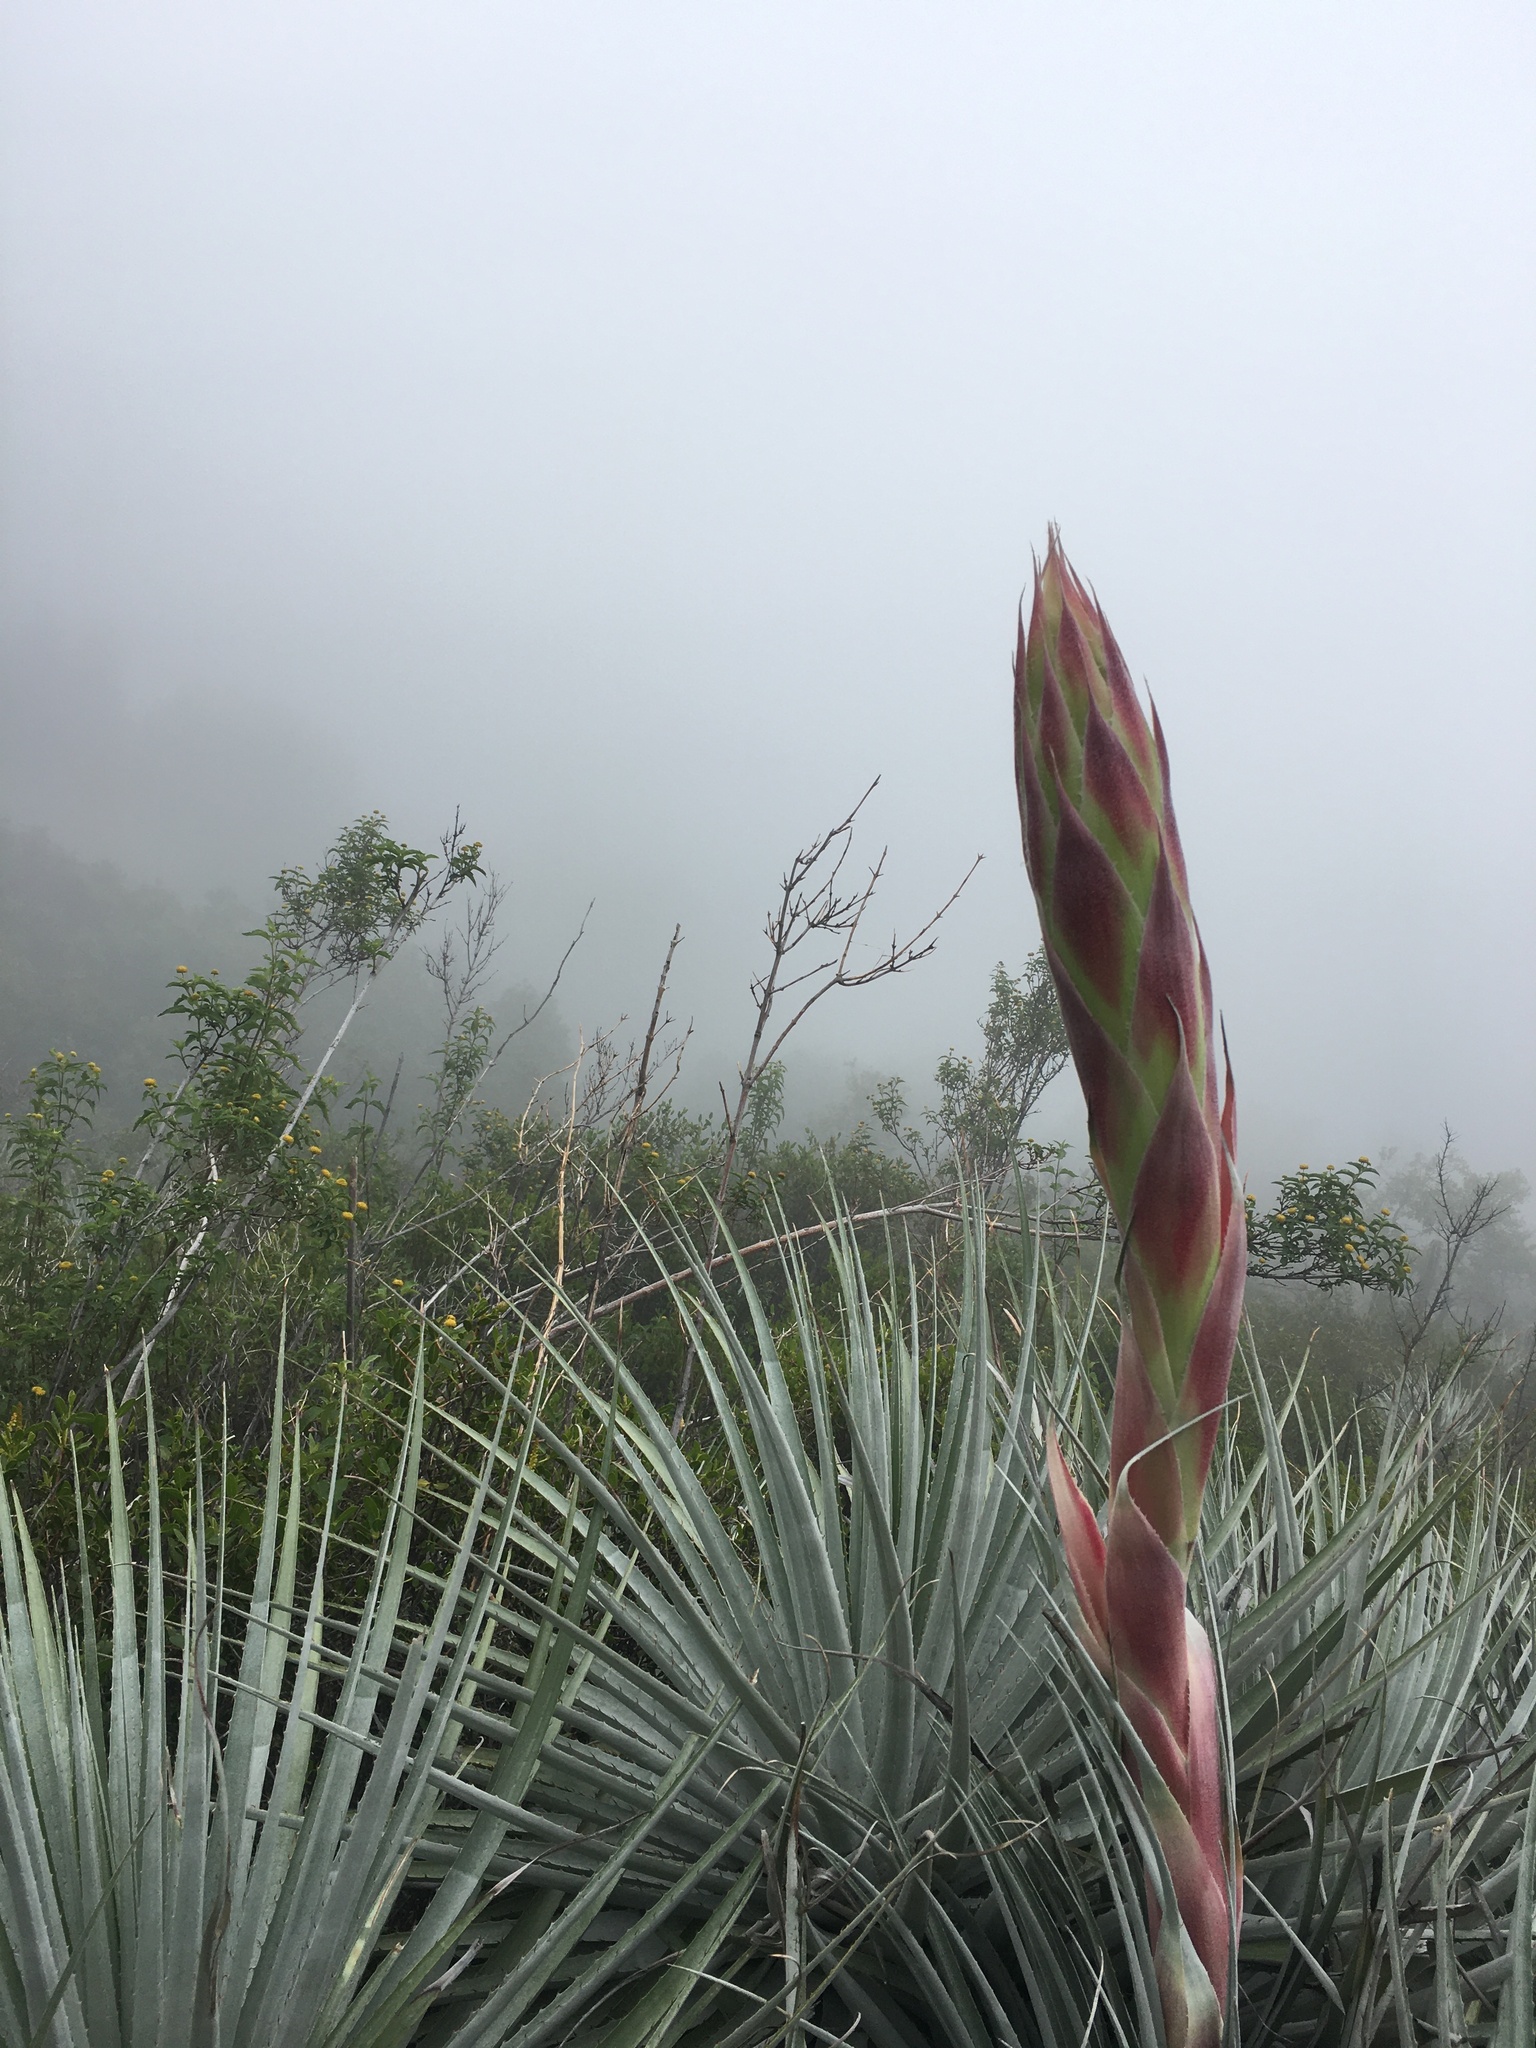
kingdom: Plantae
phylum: Tracheophyta
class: Liliopsida
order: Poales
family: Bromeliaceae
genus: Puya
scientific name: Puya coerulea
